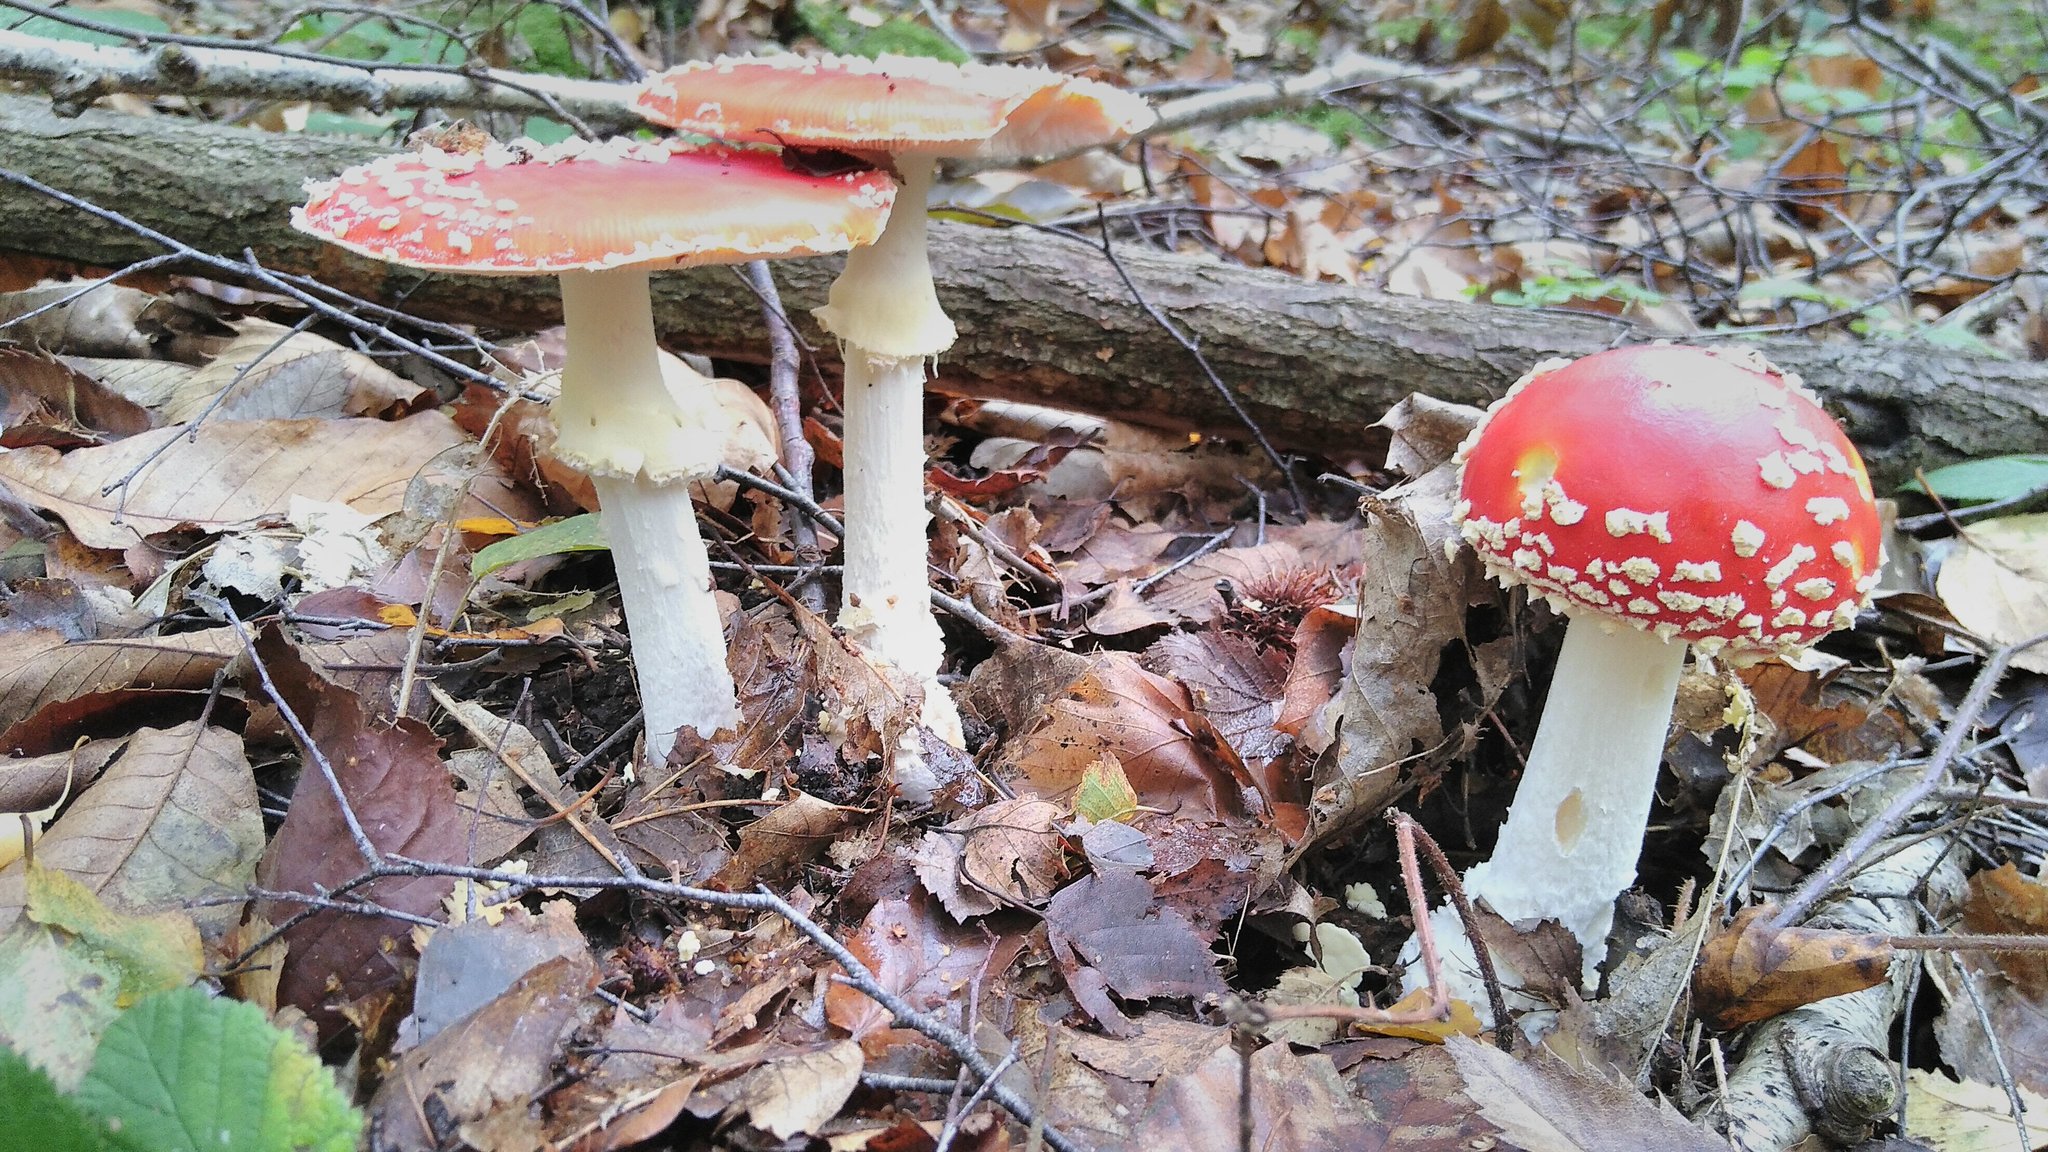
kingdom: Fungi
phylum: Basidiomycota
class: Agaricomycetes
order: Agaricales
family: Amanitaceae
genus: Amanita
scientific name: Amanita muscaria
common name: Fly agaric
